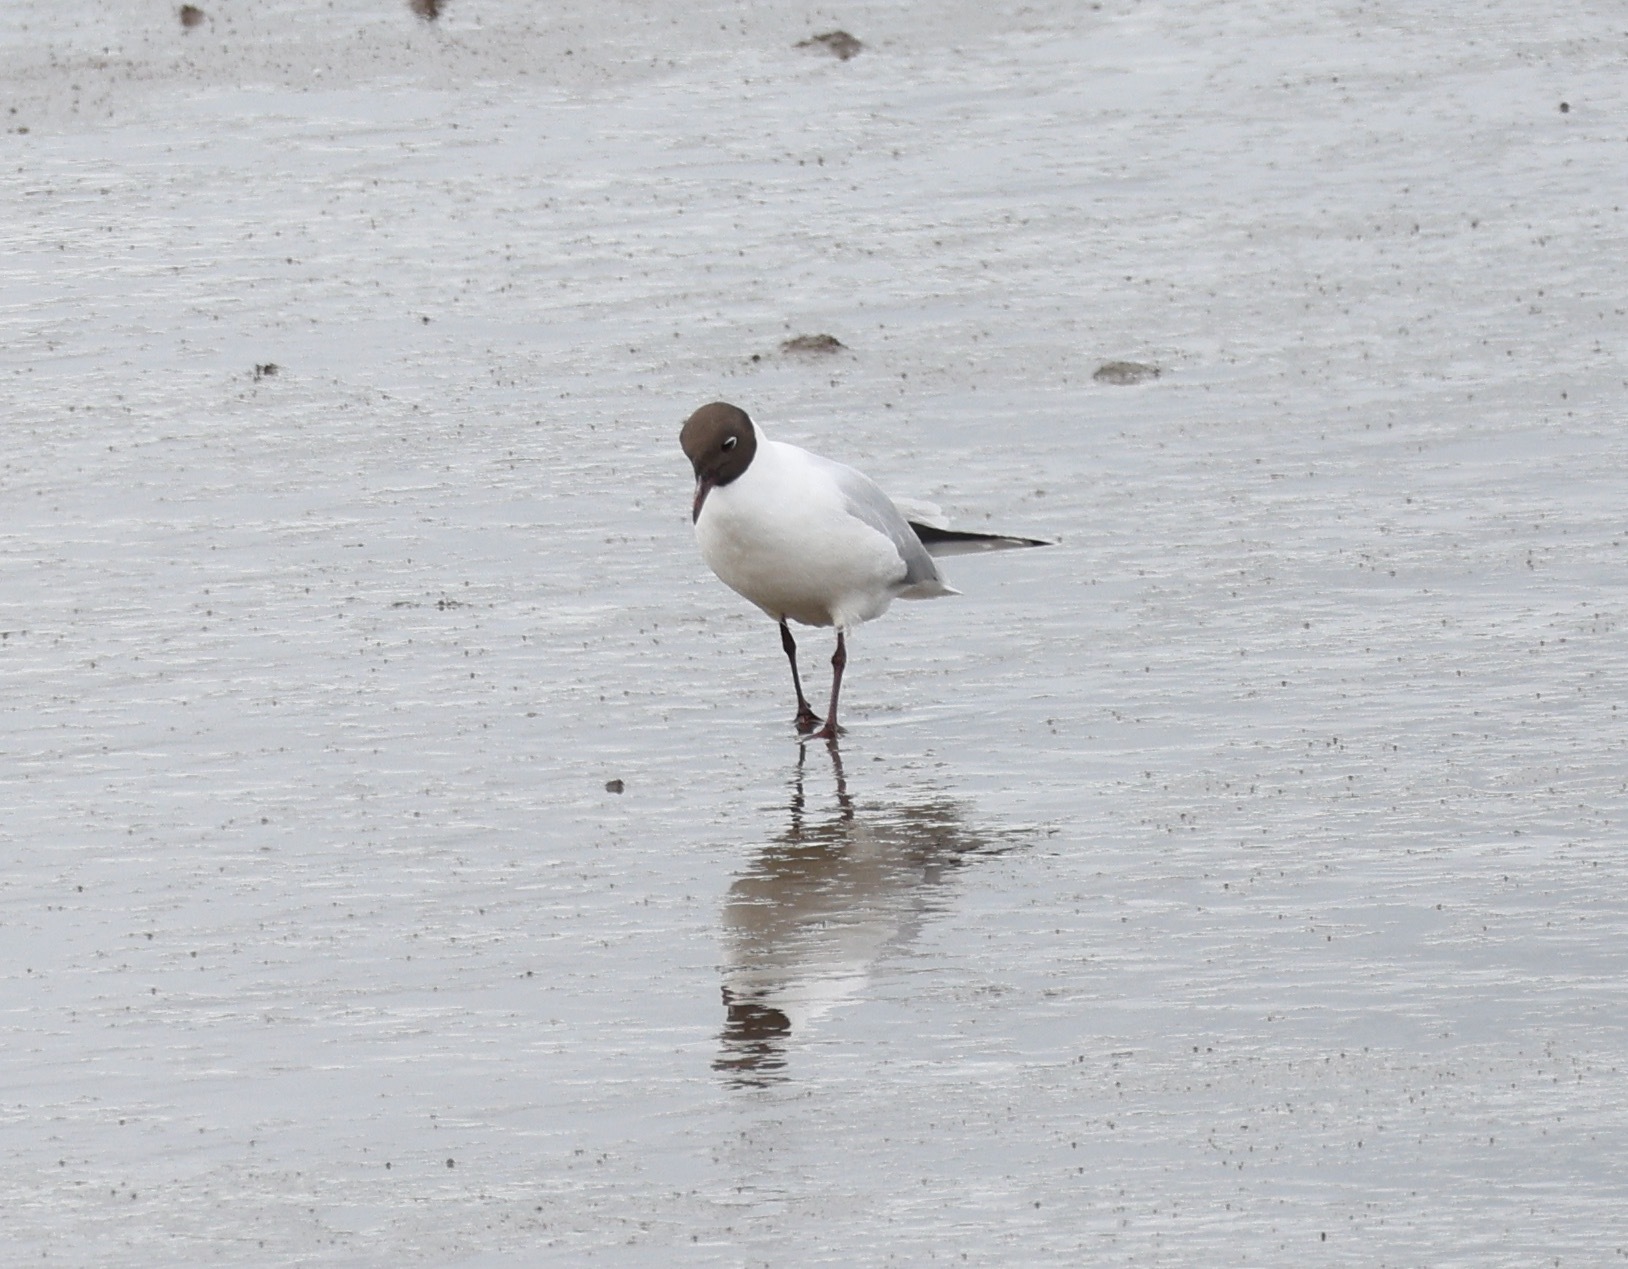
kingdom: Animalia
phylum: Chordata
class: Aves
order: Charadriiformes
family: Laridae
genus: Chroicocephalus
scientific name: Chroicocephalus ridibundus
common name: Black-headed gull
